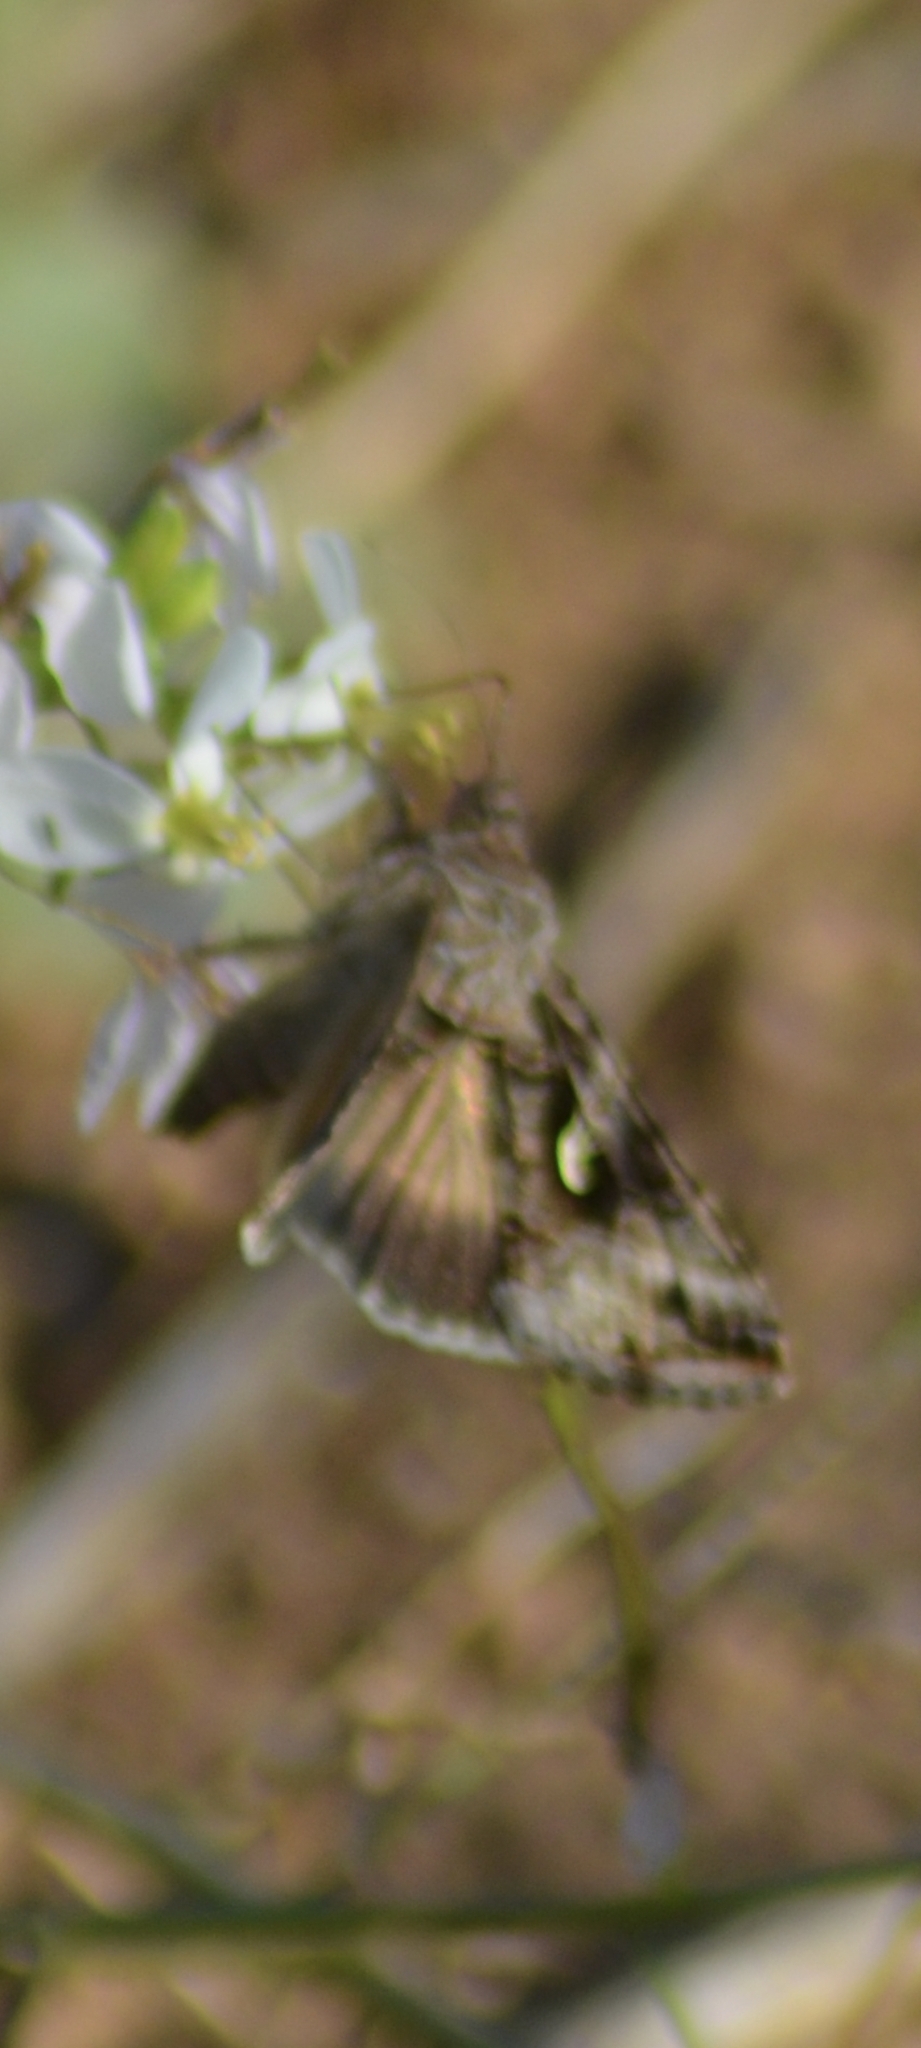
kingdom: Animalia
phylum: Arthropoda
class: Insecta
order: Lepidoptera
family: Noctuidae
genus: Autographa
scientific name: Autographa gamma
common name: Silver y
